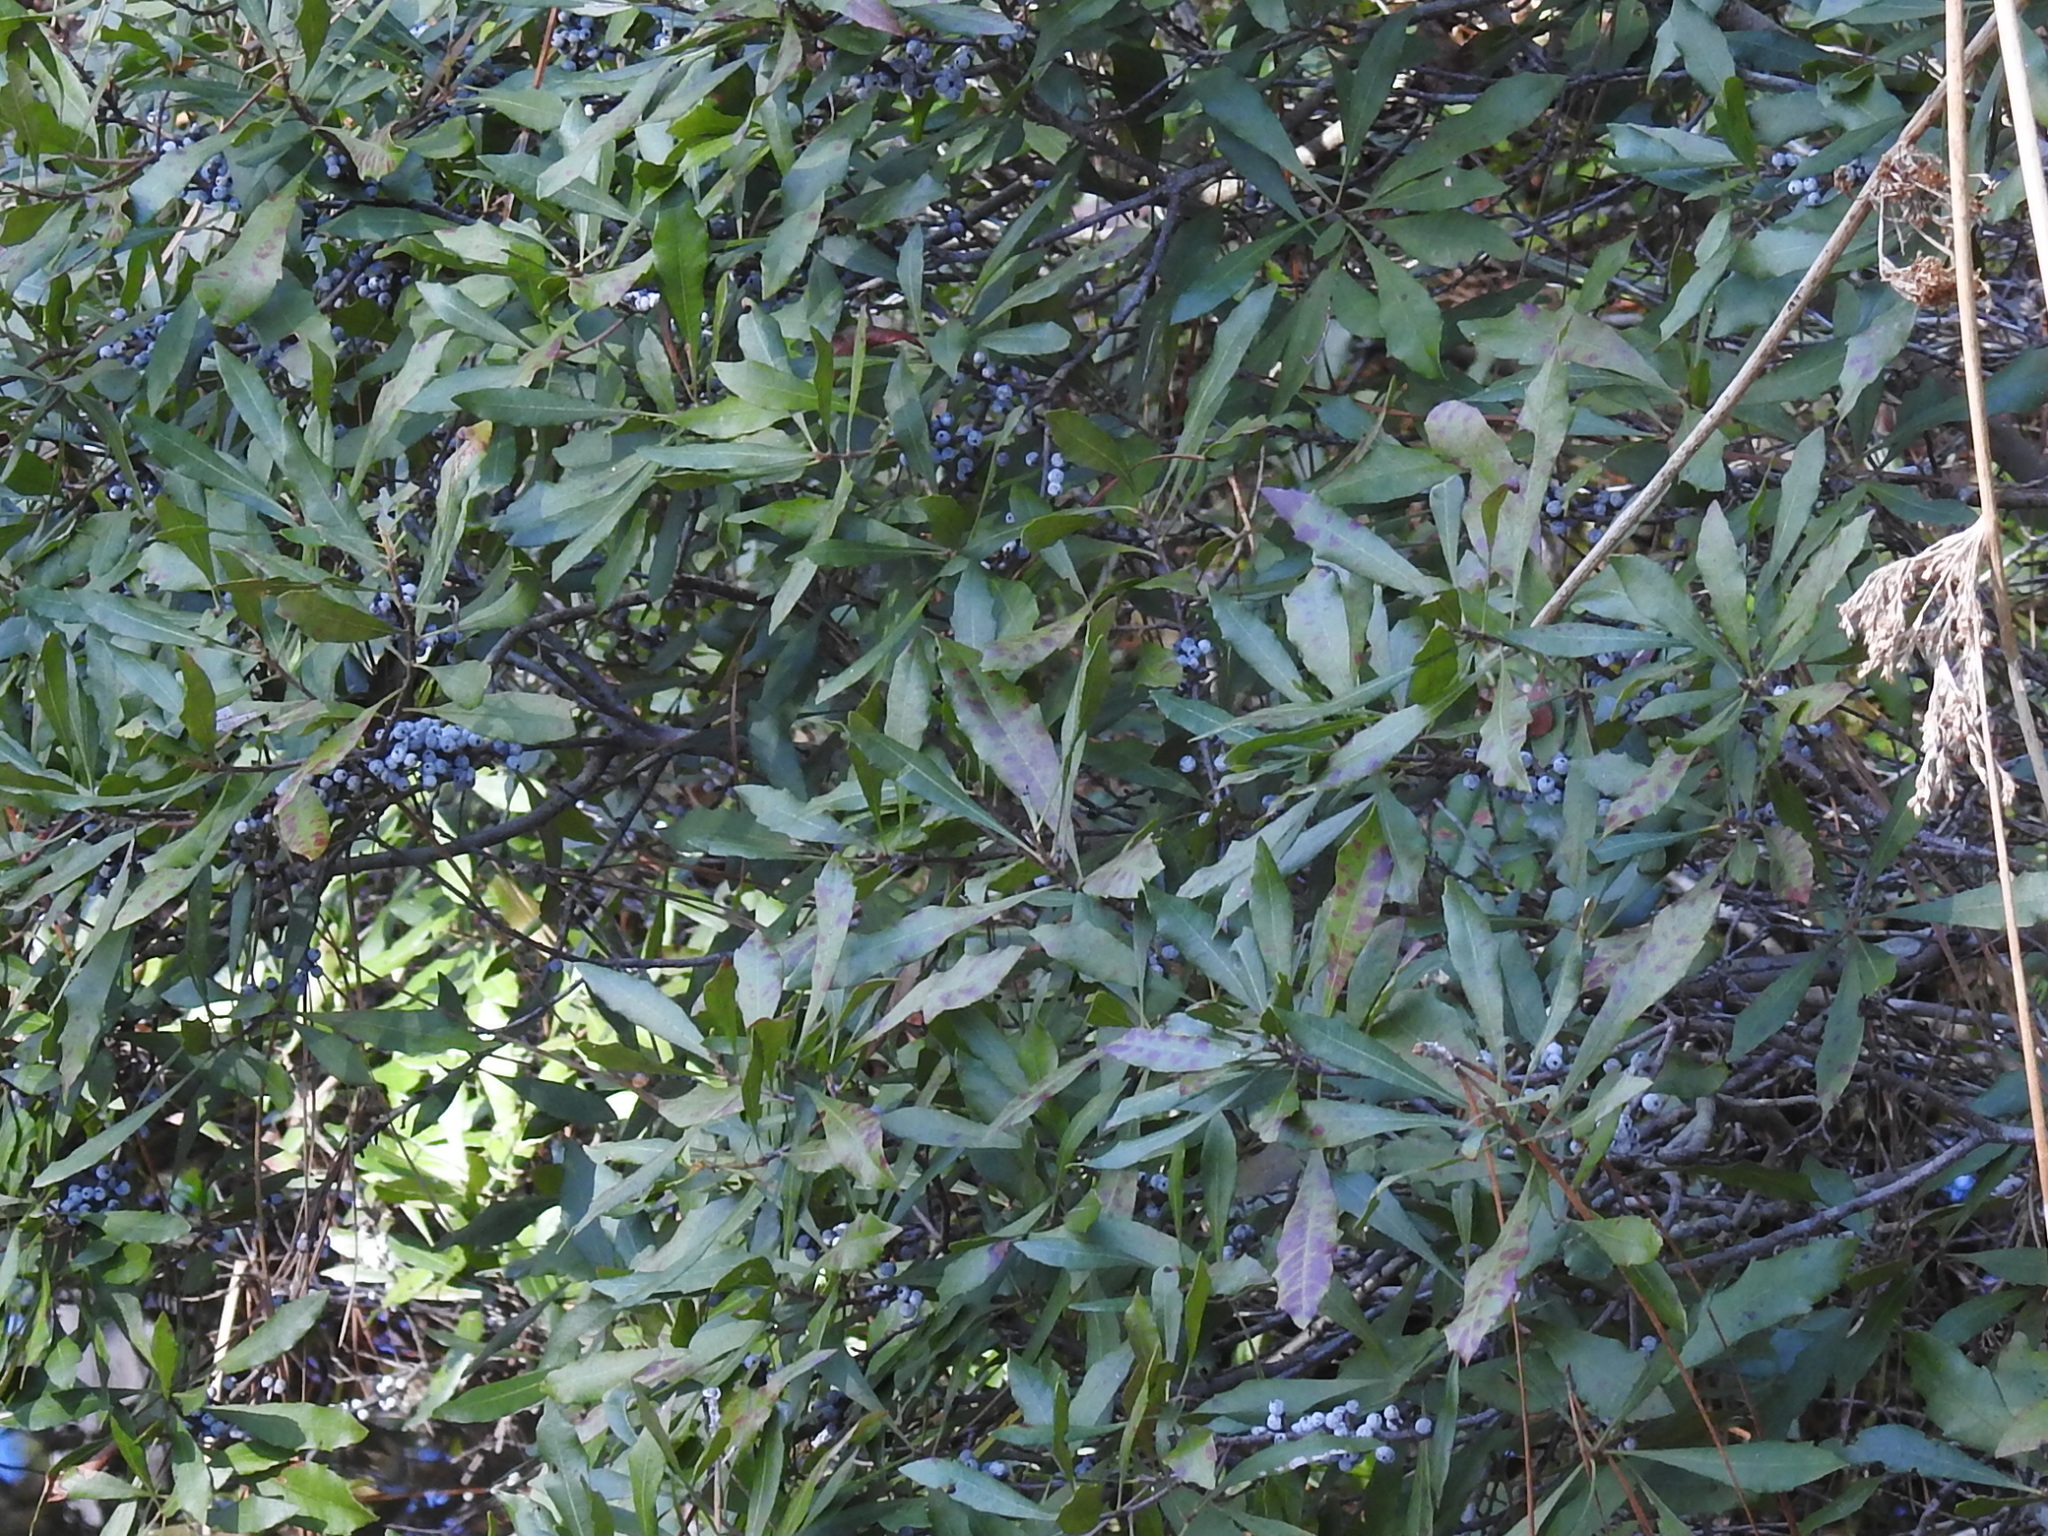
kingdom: Plantae
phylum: Tracheophyta
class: Magnoliopsida
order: Fagales
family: Myricaceae
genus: Morella
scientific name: Morella cerifera
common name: Wax myrtle
